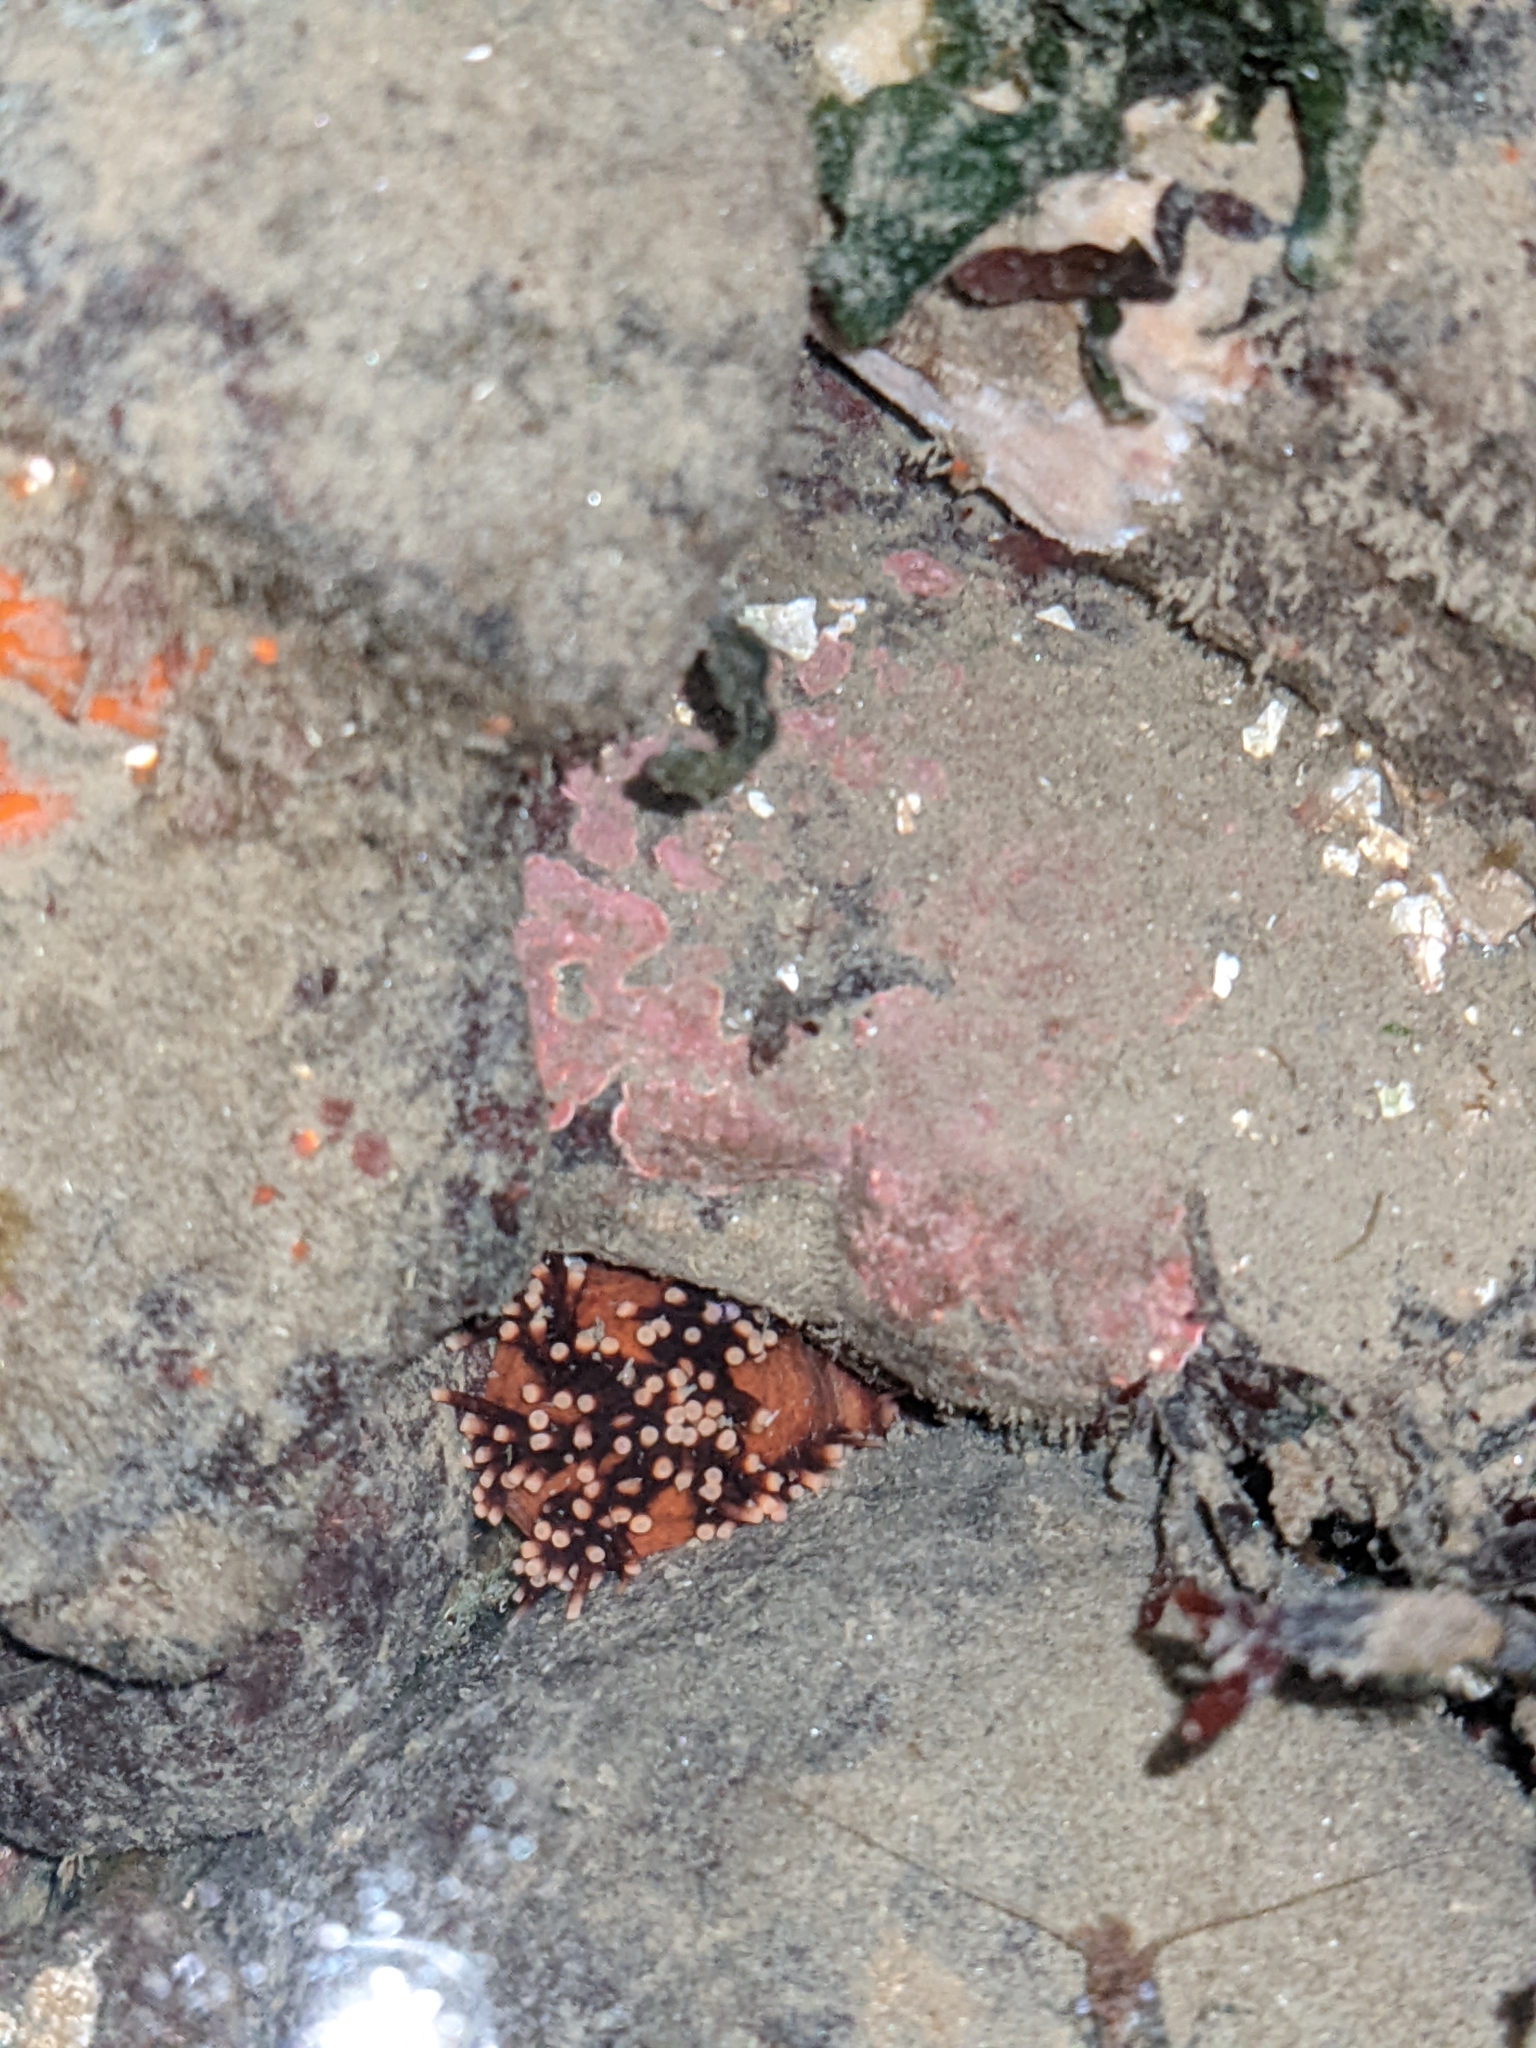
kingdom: Animalia
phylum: Echinodermata
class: Holothuroidea
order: Dendrochirotida
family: Cucumariidae
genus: Cucumaria
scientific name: Cucumaria miniata
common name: Orange sea cucumber
